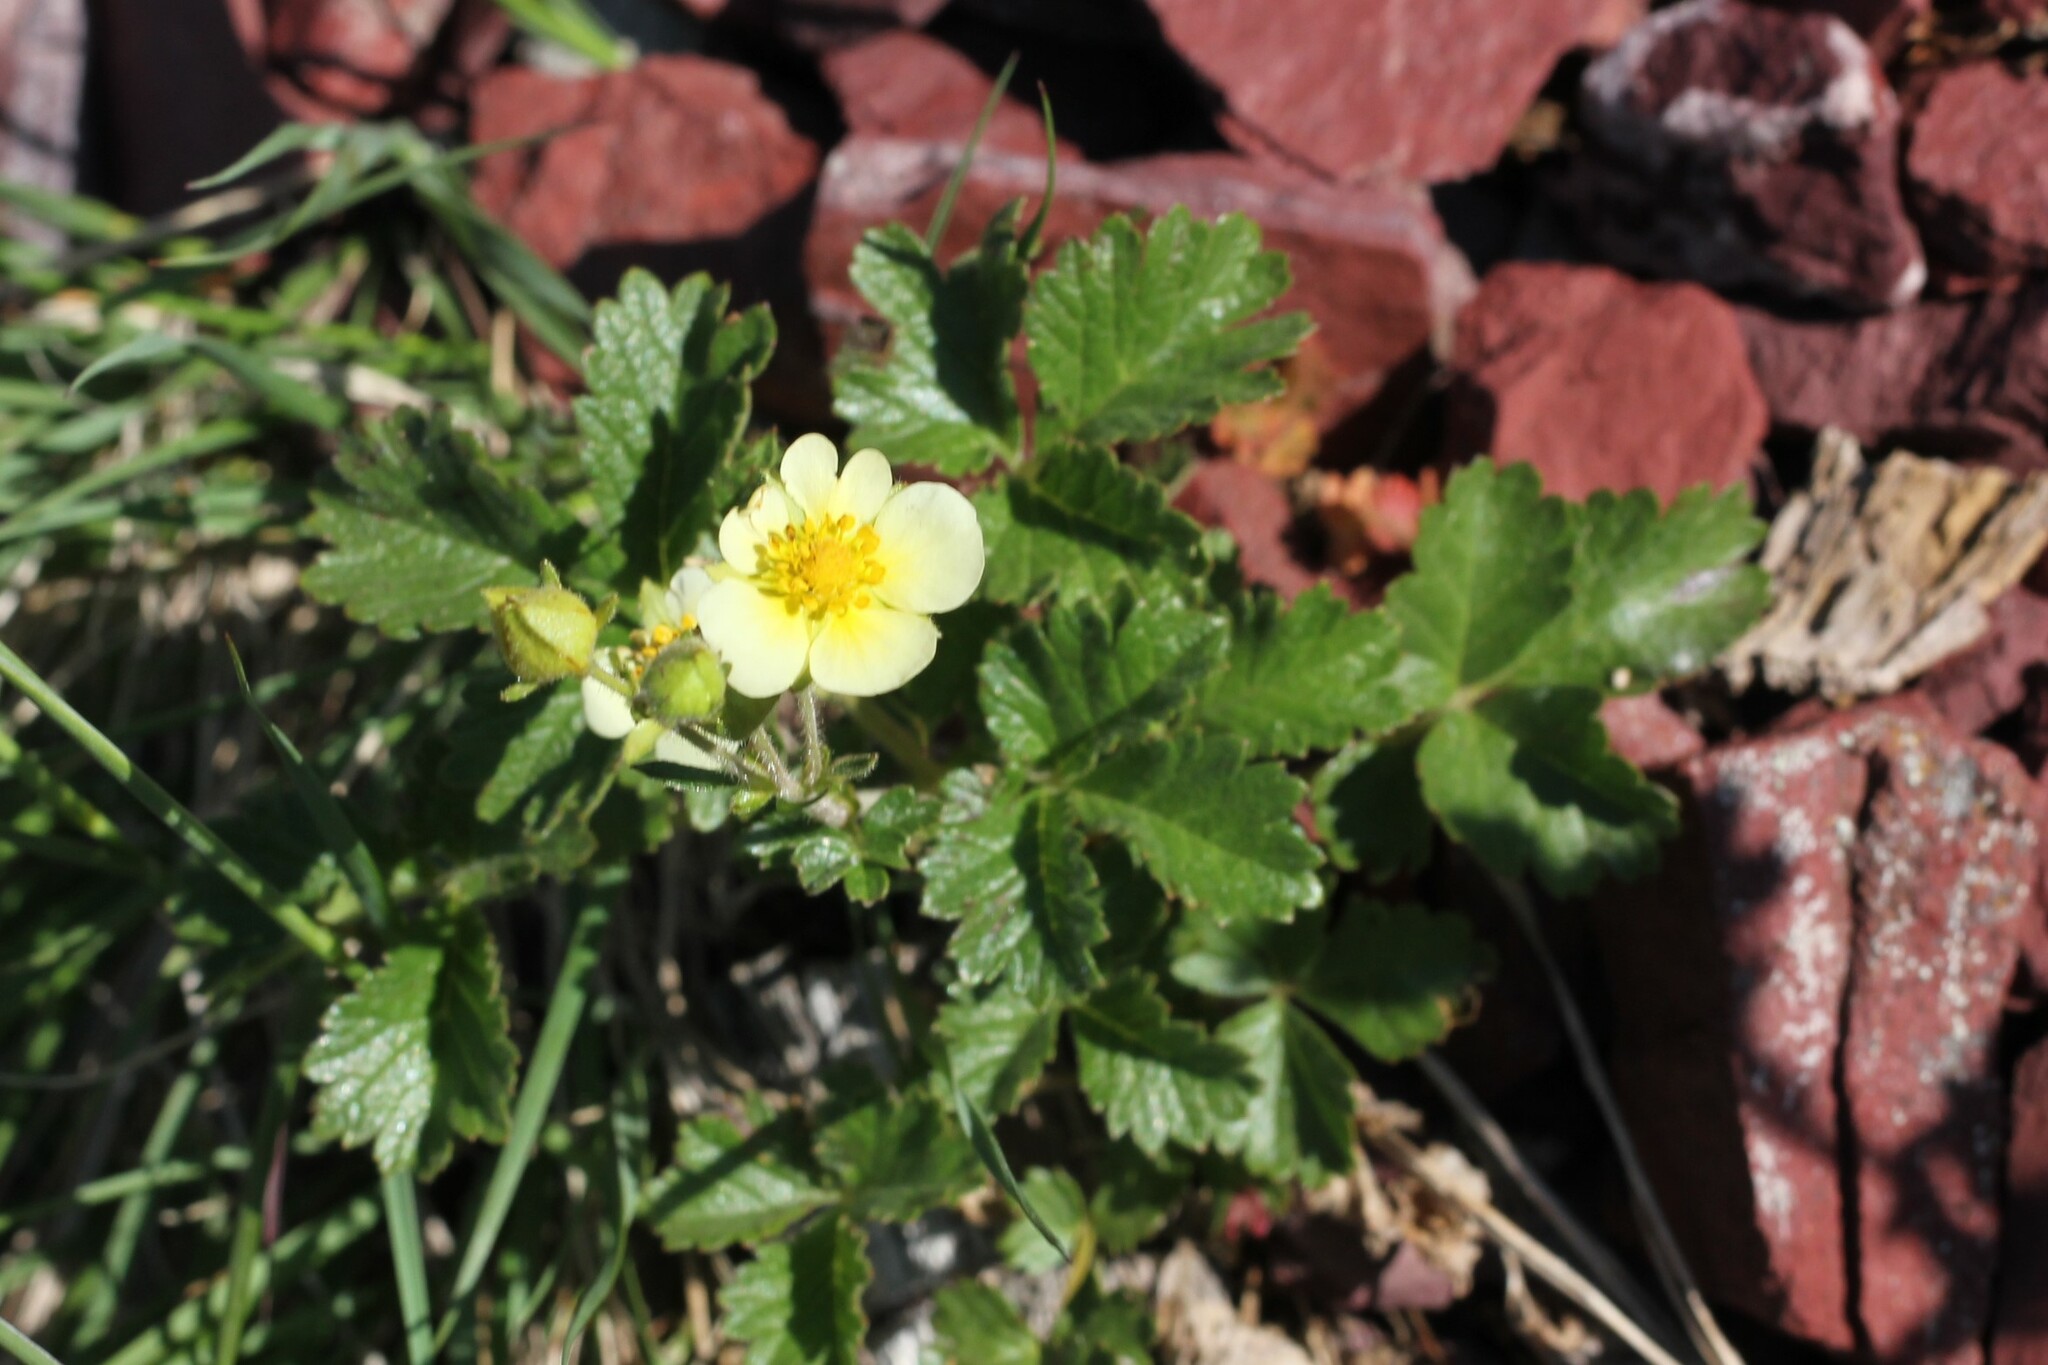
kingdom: Plantae
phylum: Tracheophyta
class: Magnoliopsida
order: Rosales
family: Rosaceae
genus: Drymocallis
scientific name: Drymocallis pseudorupestris
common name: Sticky cinquefoil
